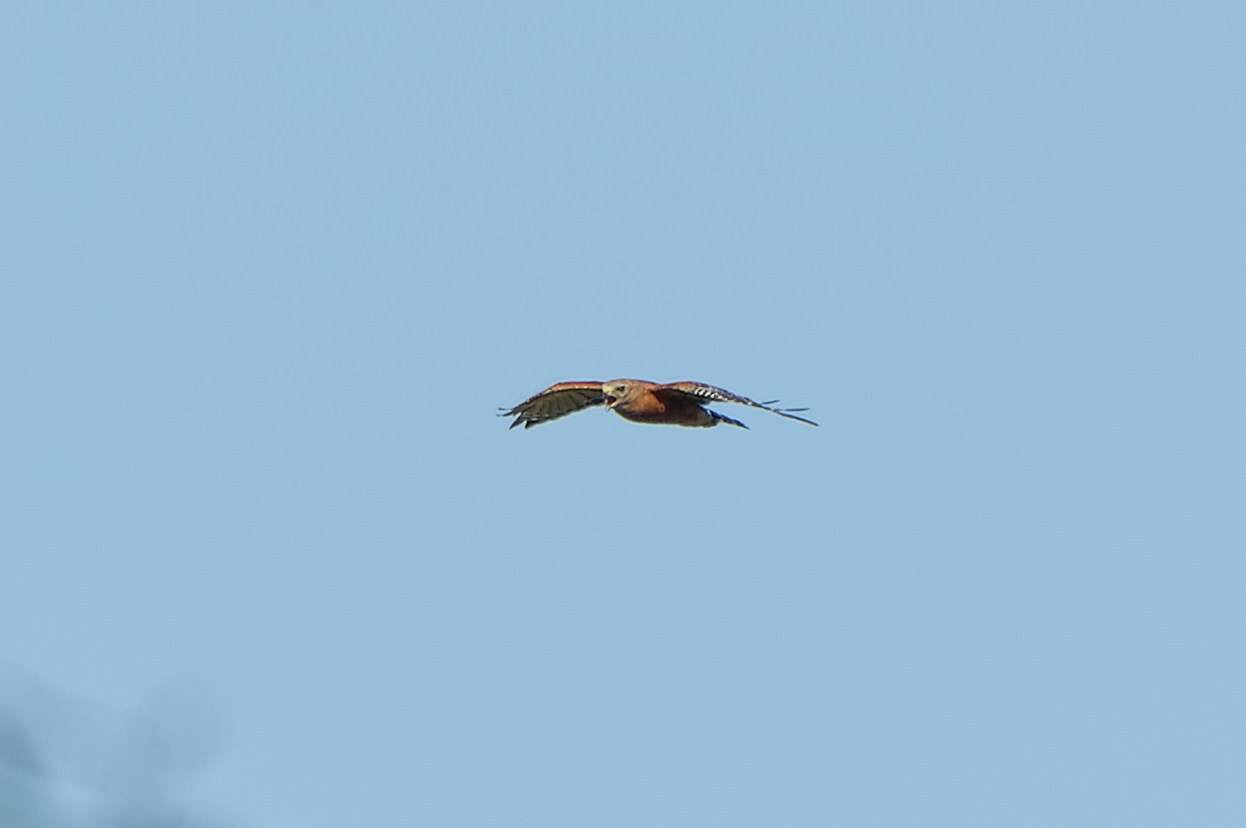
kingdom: Animalia
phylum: Chordata
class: Aves
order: Accipitriformes
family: Accipitridae
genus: Buteo
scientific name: Buteo lineatus
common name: Red-shouldered hawk
